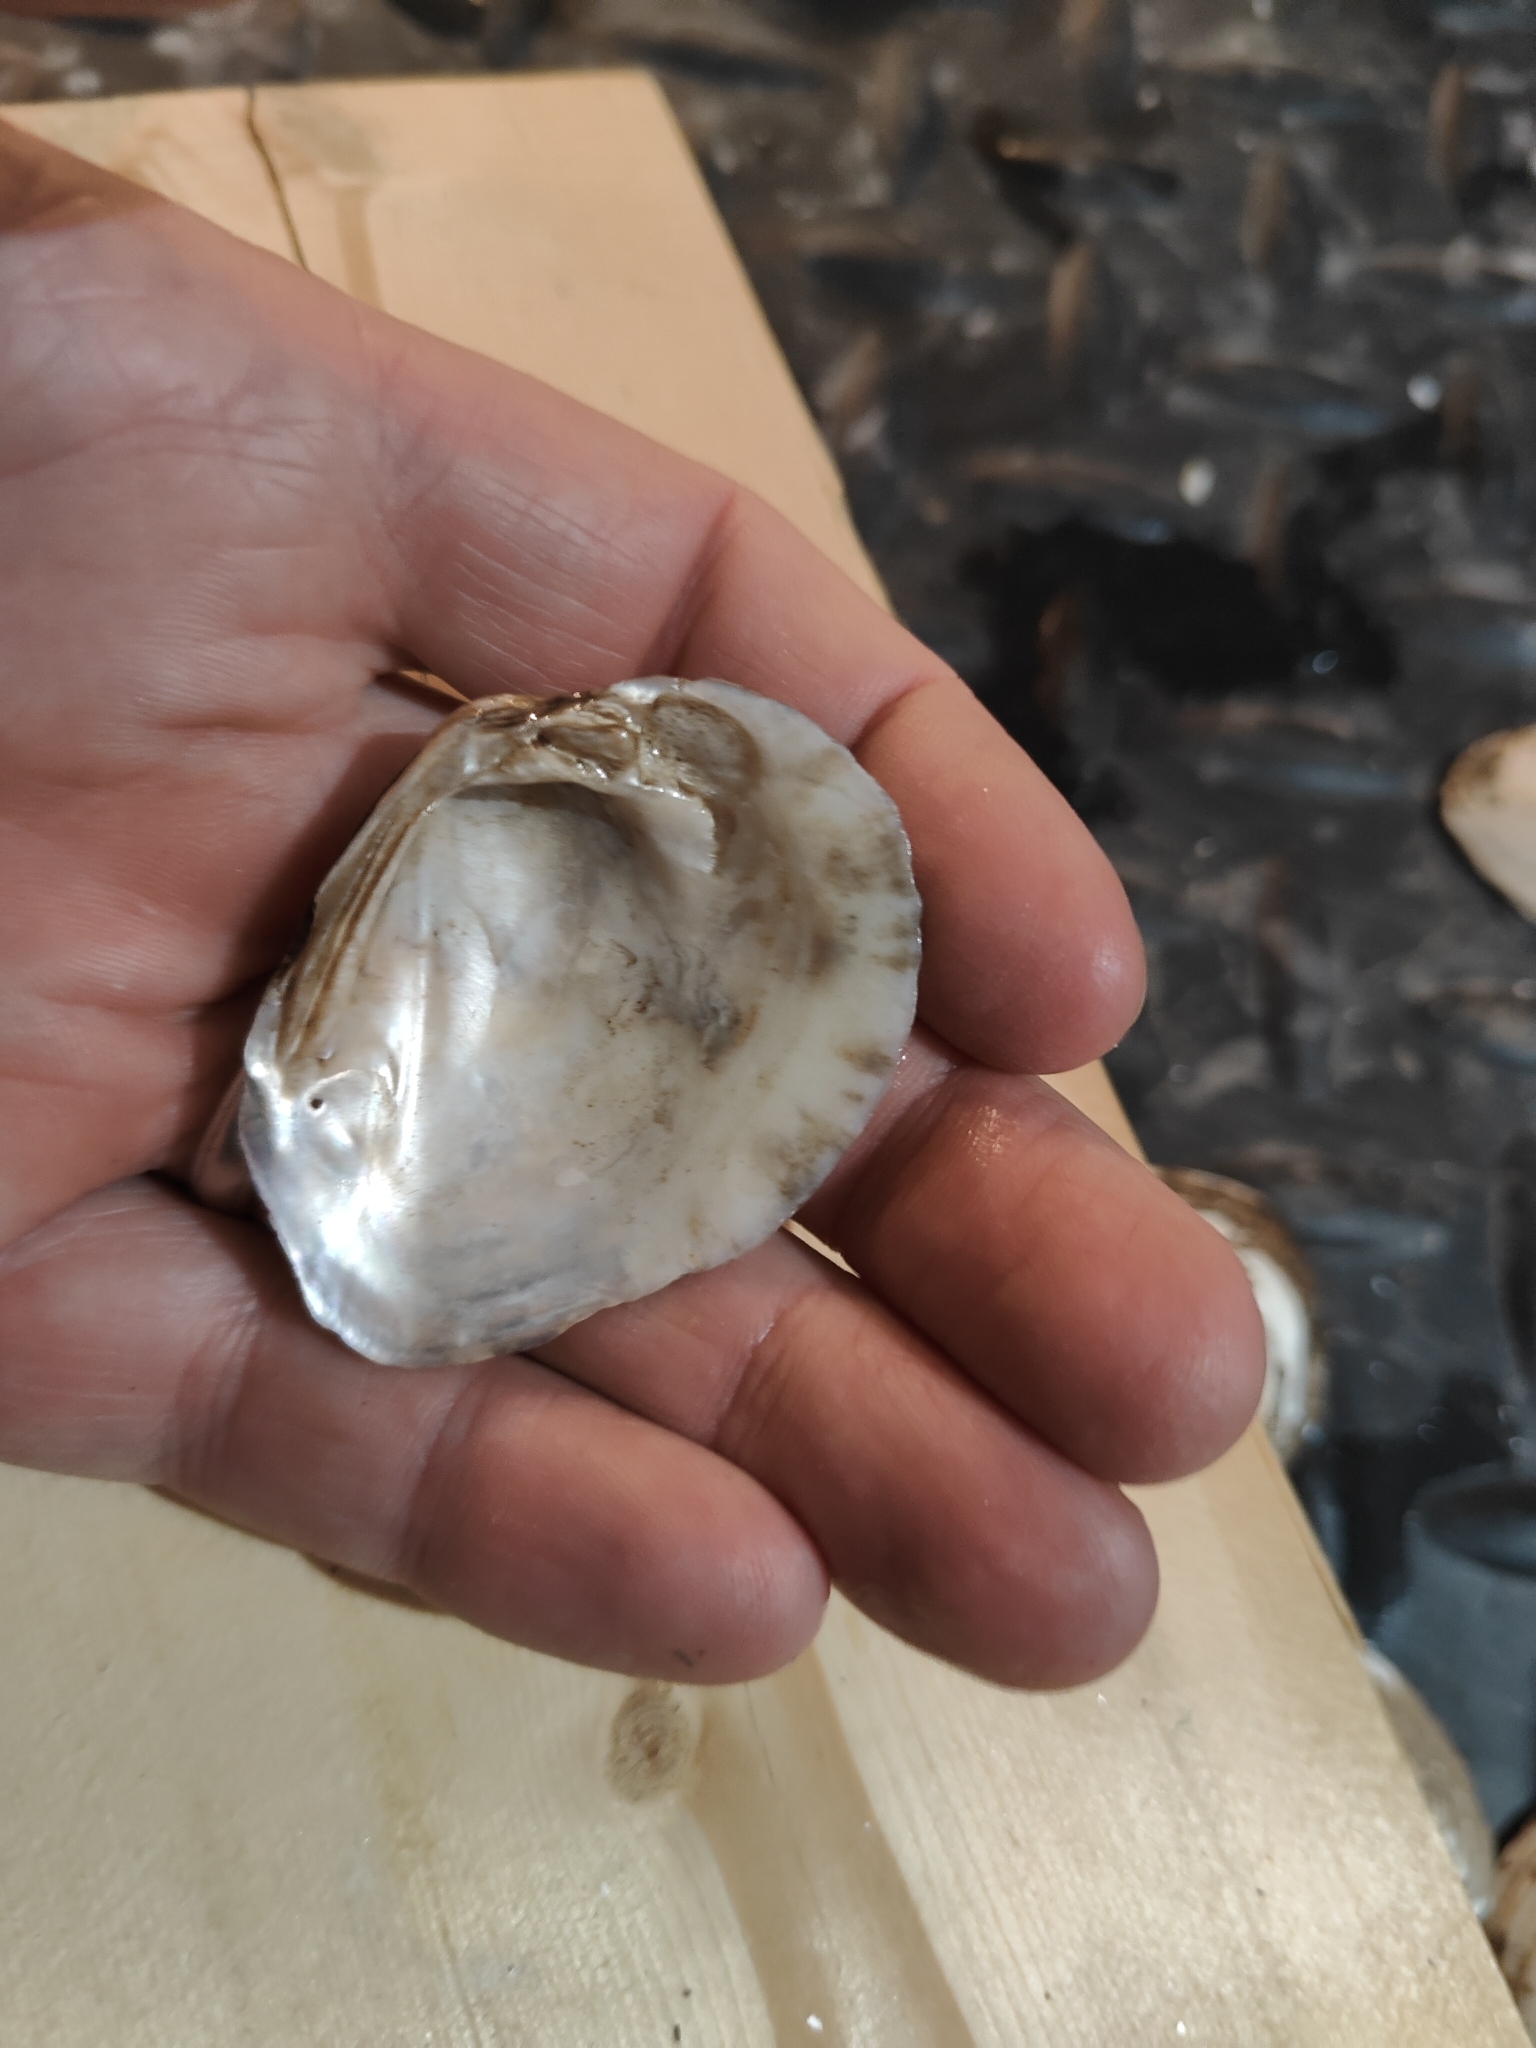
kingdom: Animalia
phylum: Mollusca
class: Bivalvia
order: Unionida
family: Unionidae
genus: Fusconaia
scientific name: Fusconaia flava
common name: Wabash pigtoe
